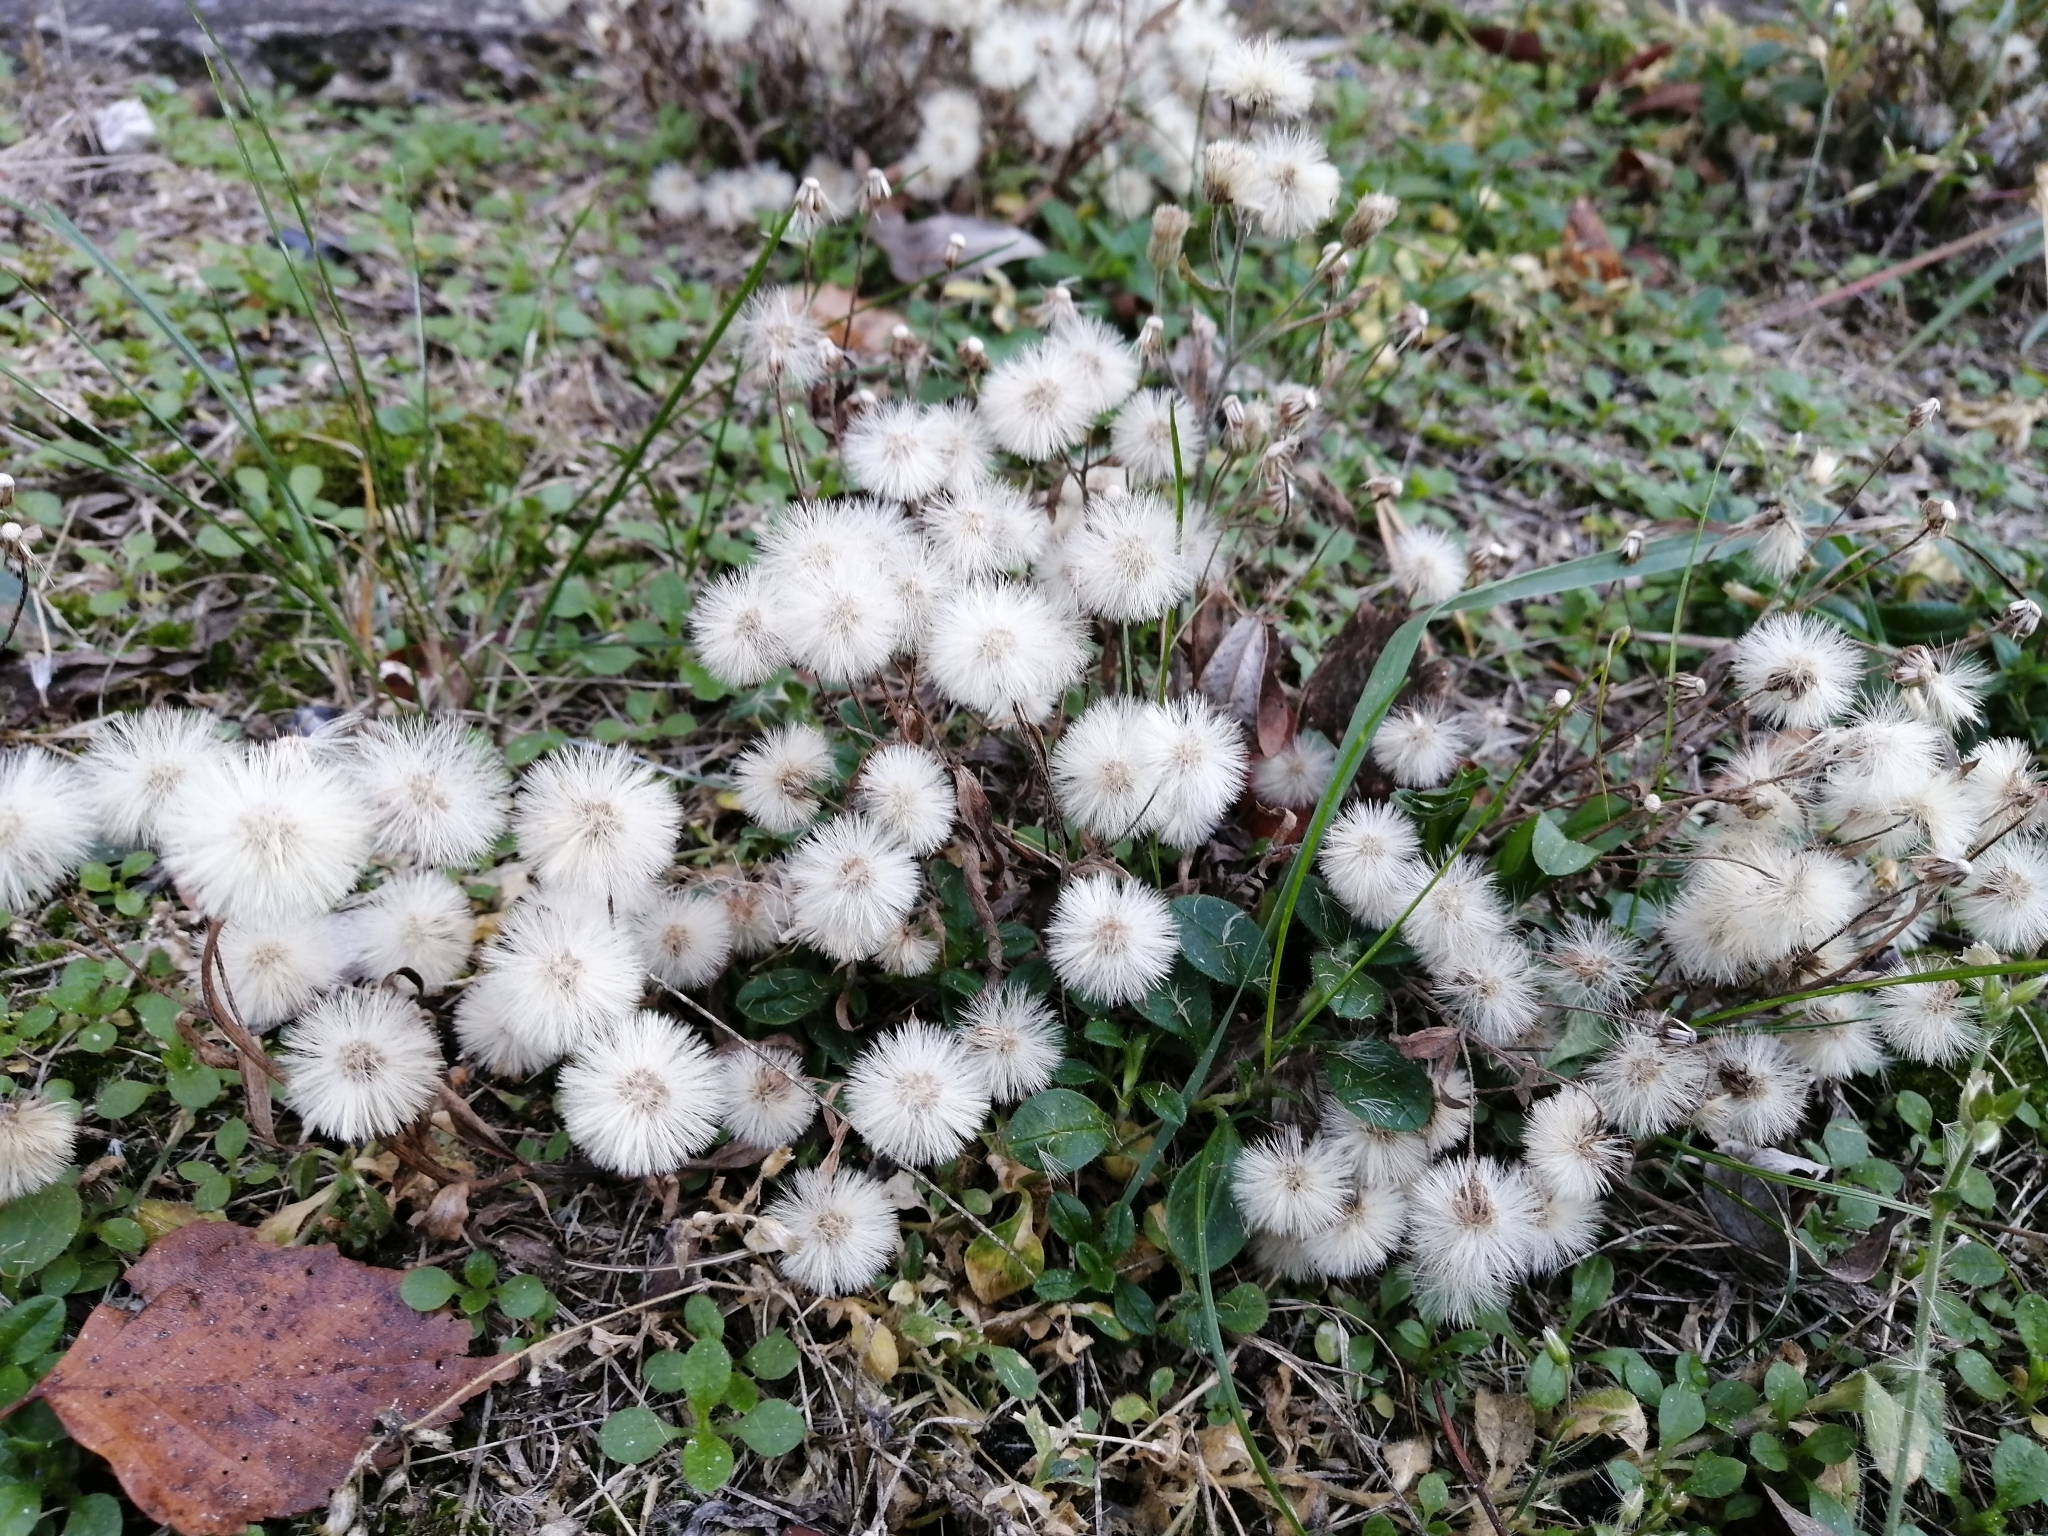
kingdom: Plantae
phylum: Tracheophyta
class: Magnoliopsida
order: Asterales
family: Asteraceae
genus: Senecio
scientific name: Senecio dubitabilis
